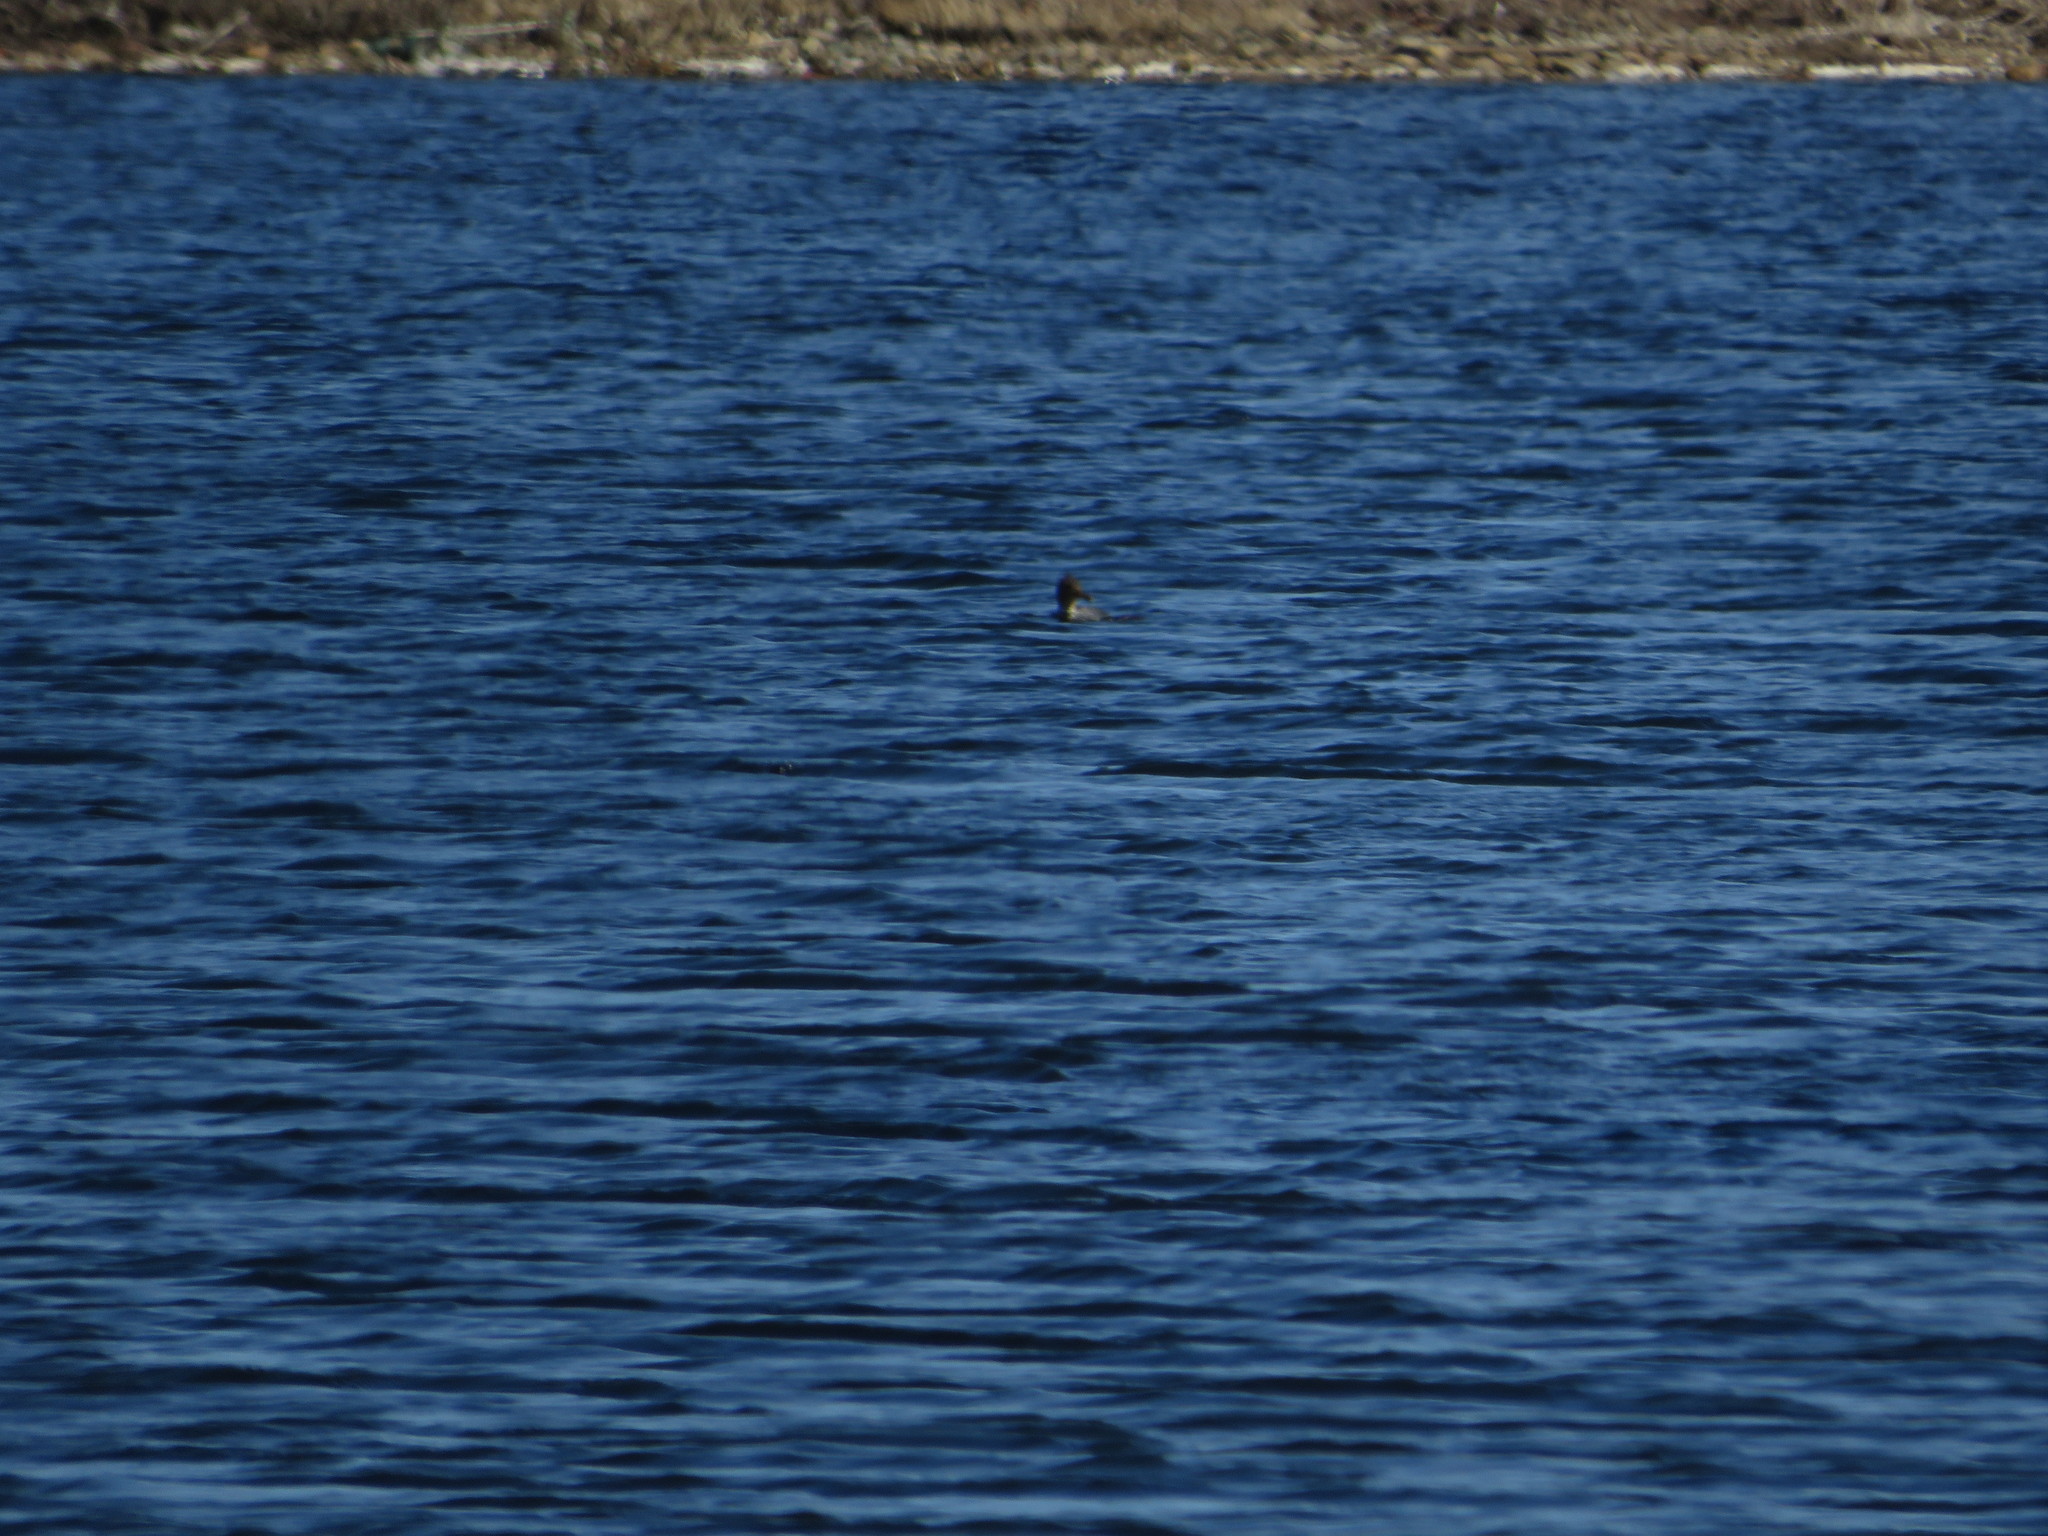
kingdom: Animalia
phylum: Chordata
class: Aves
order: Anseriformes
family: Anatidae
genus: Mergus
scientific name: Mergus serrator
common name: Red-breasted merganser
